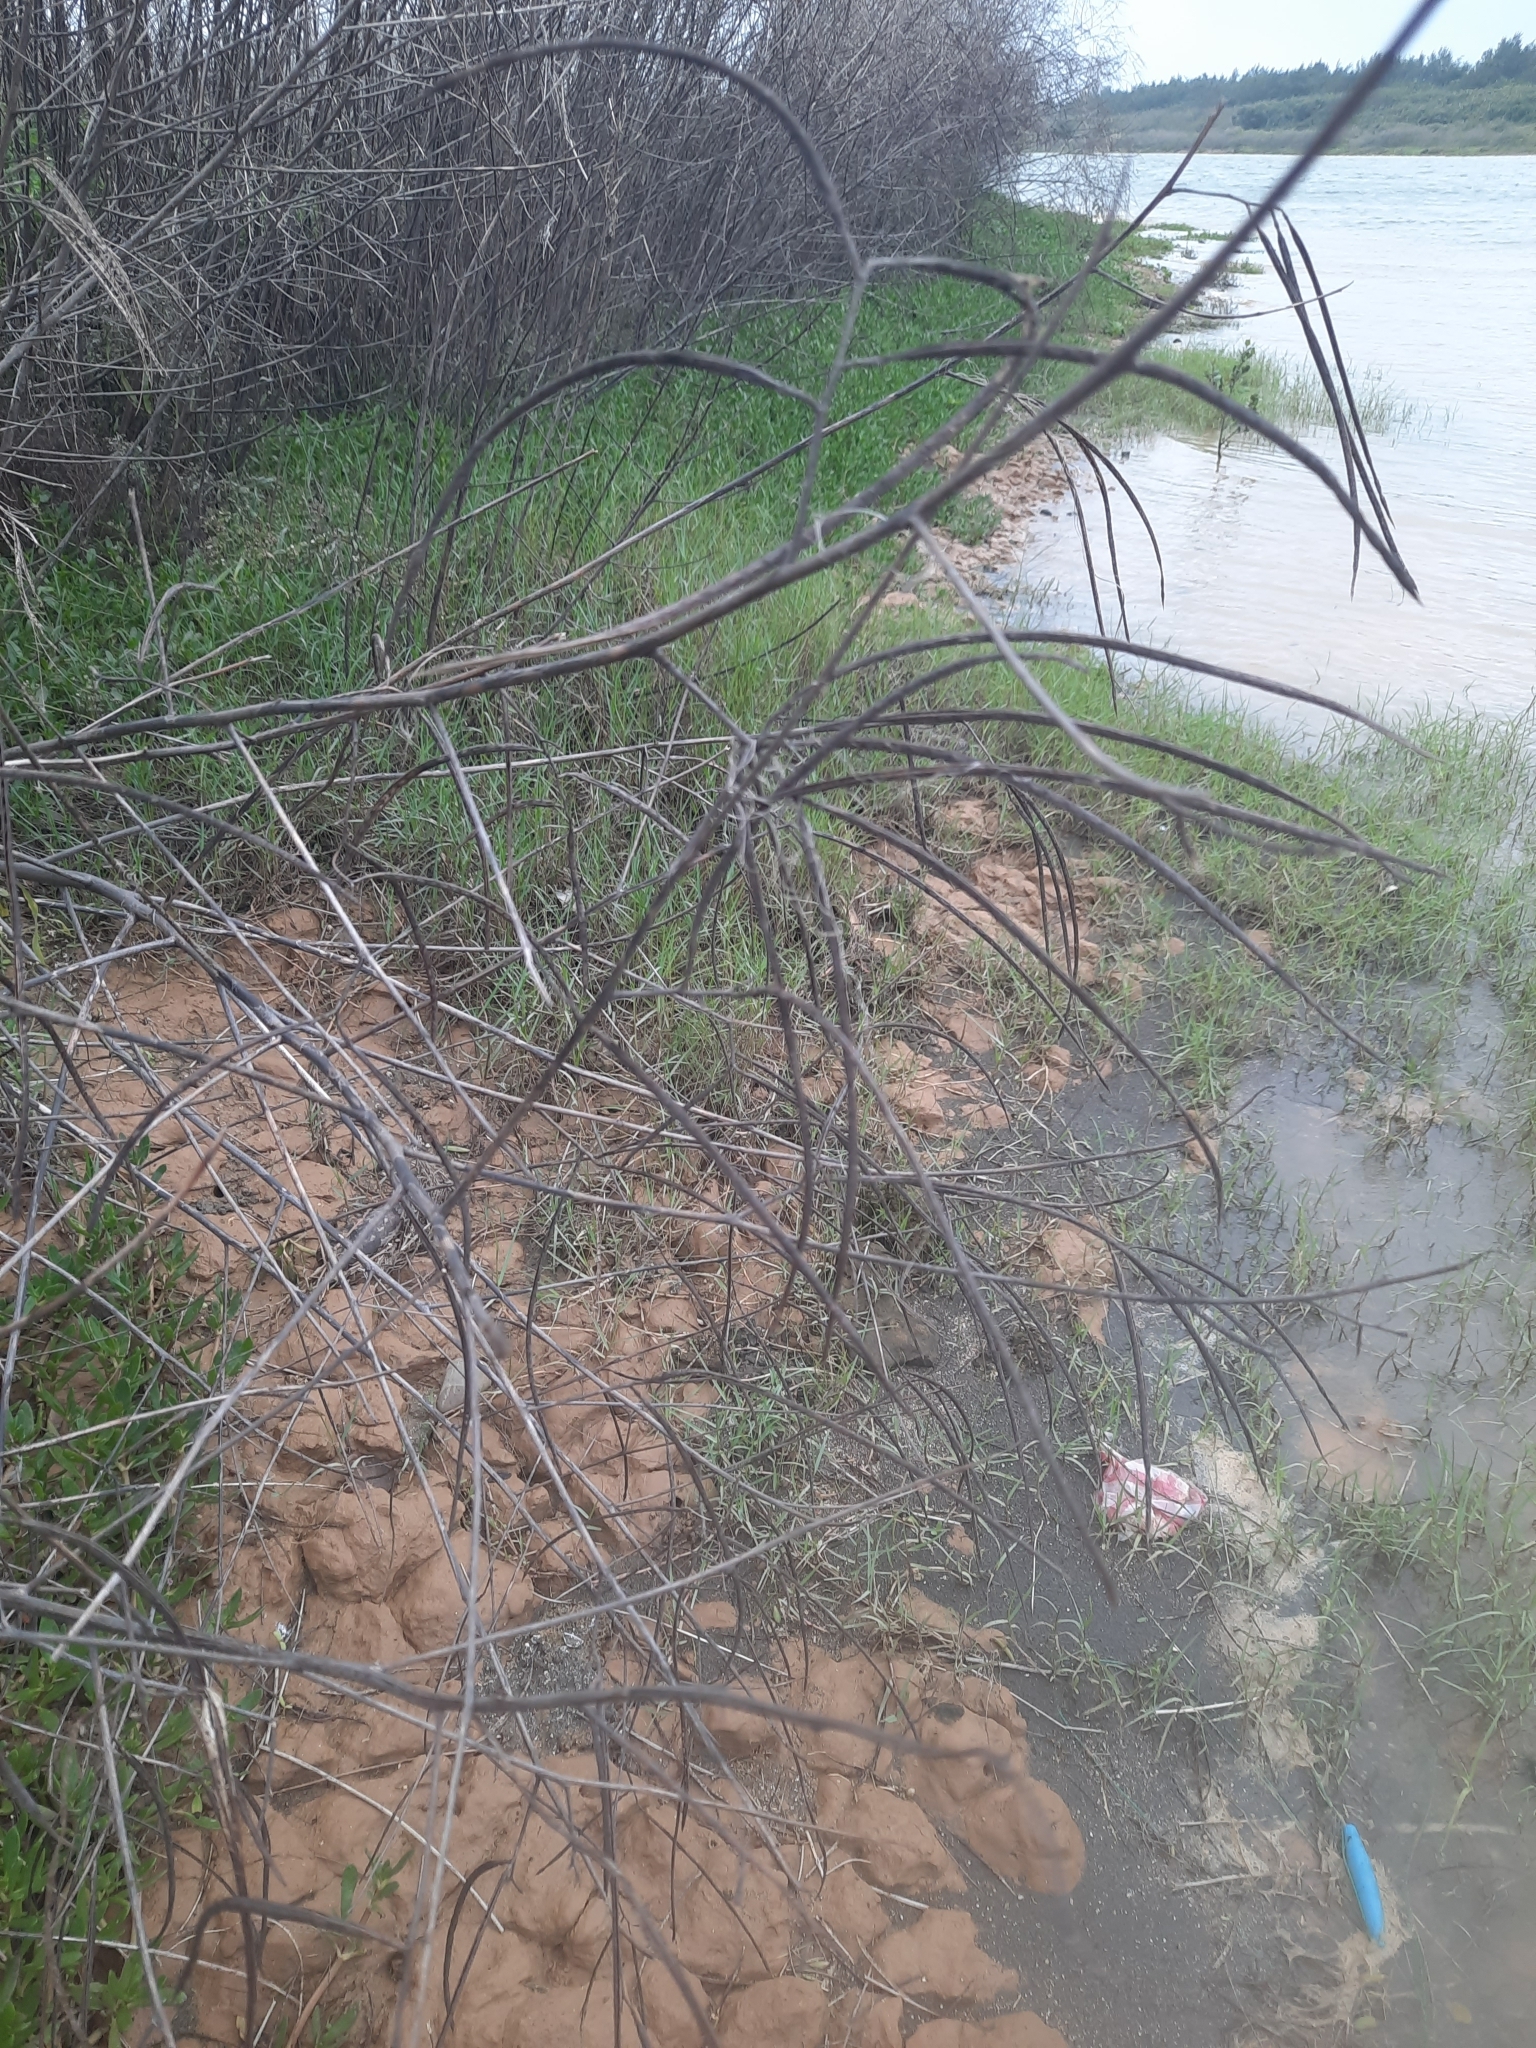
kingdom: Plantae
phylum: Tracheophyta
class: Magnoliopsida
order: Fabales
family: Fabaceae
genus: Sesbania
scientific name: Sesbania cannabina
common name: Canicha
